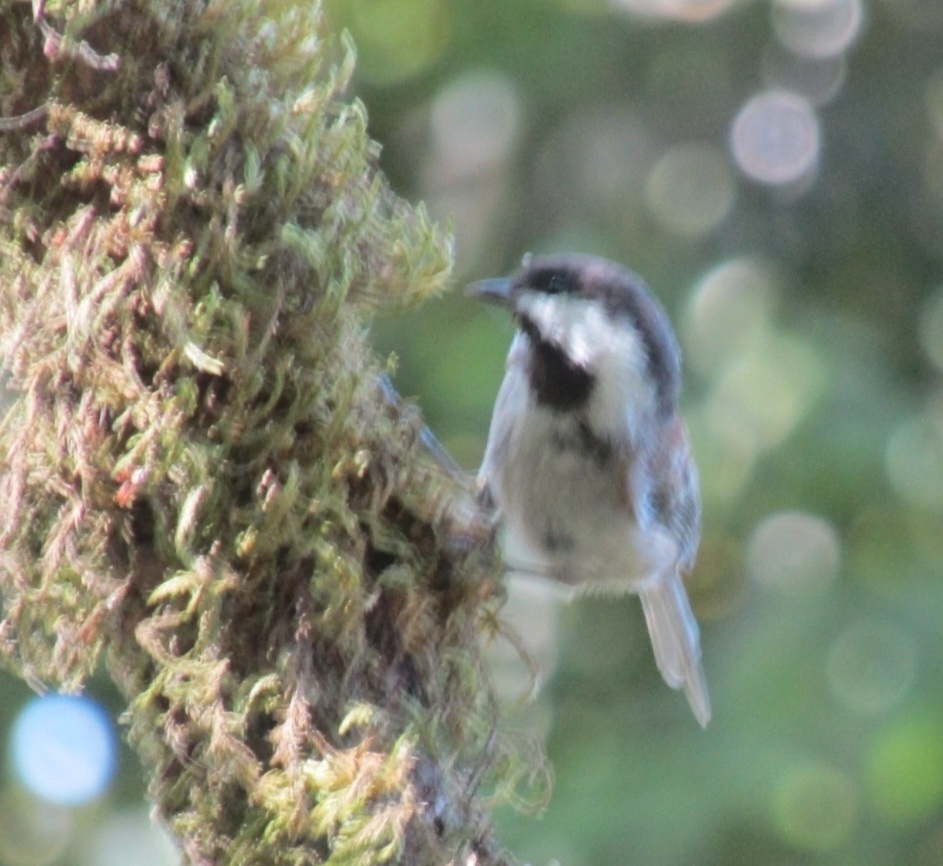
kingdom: Animalia
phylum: Chordata
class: Aves
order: Passeriformes
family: Paridae
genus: Poecile
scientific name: Poecile rufescens
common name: Chestnut-backed chickadee
